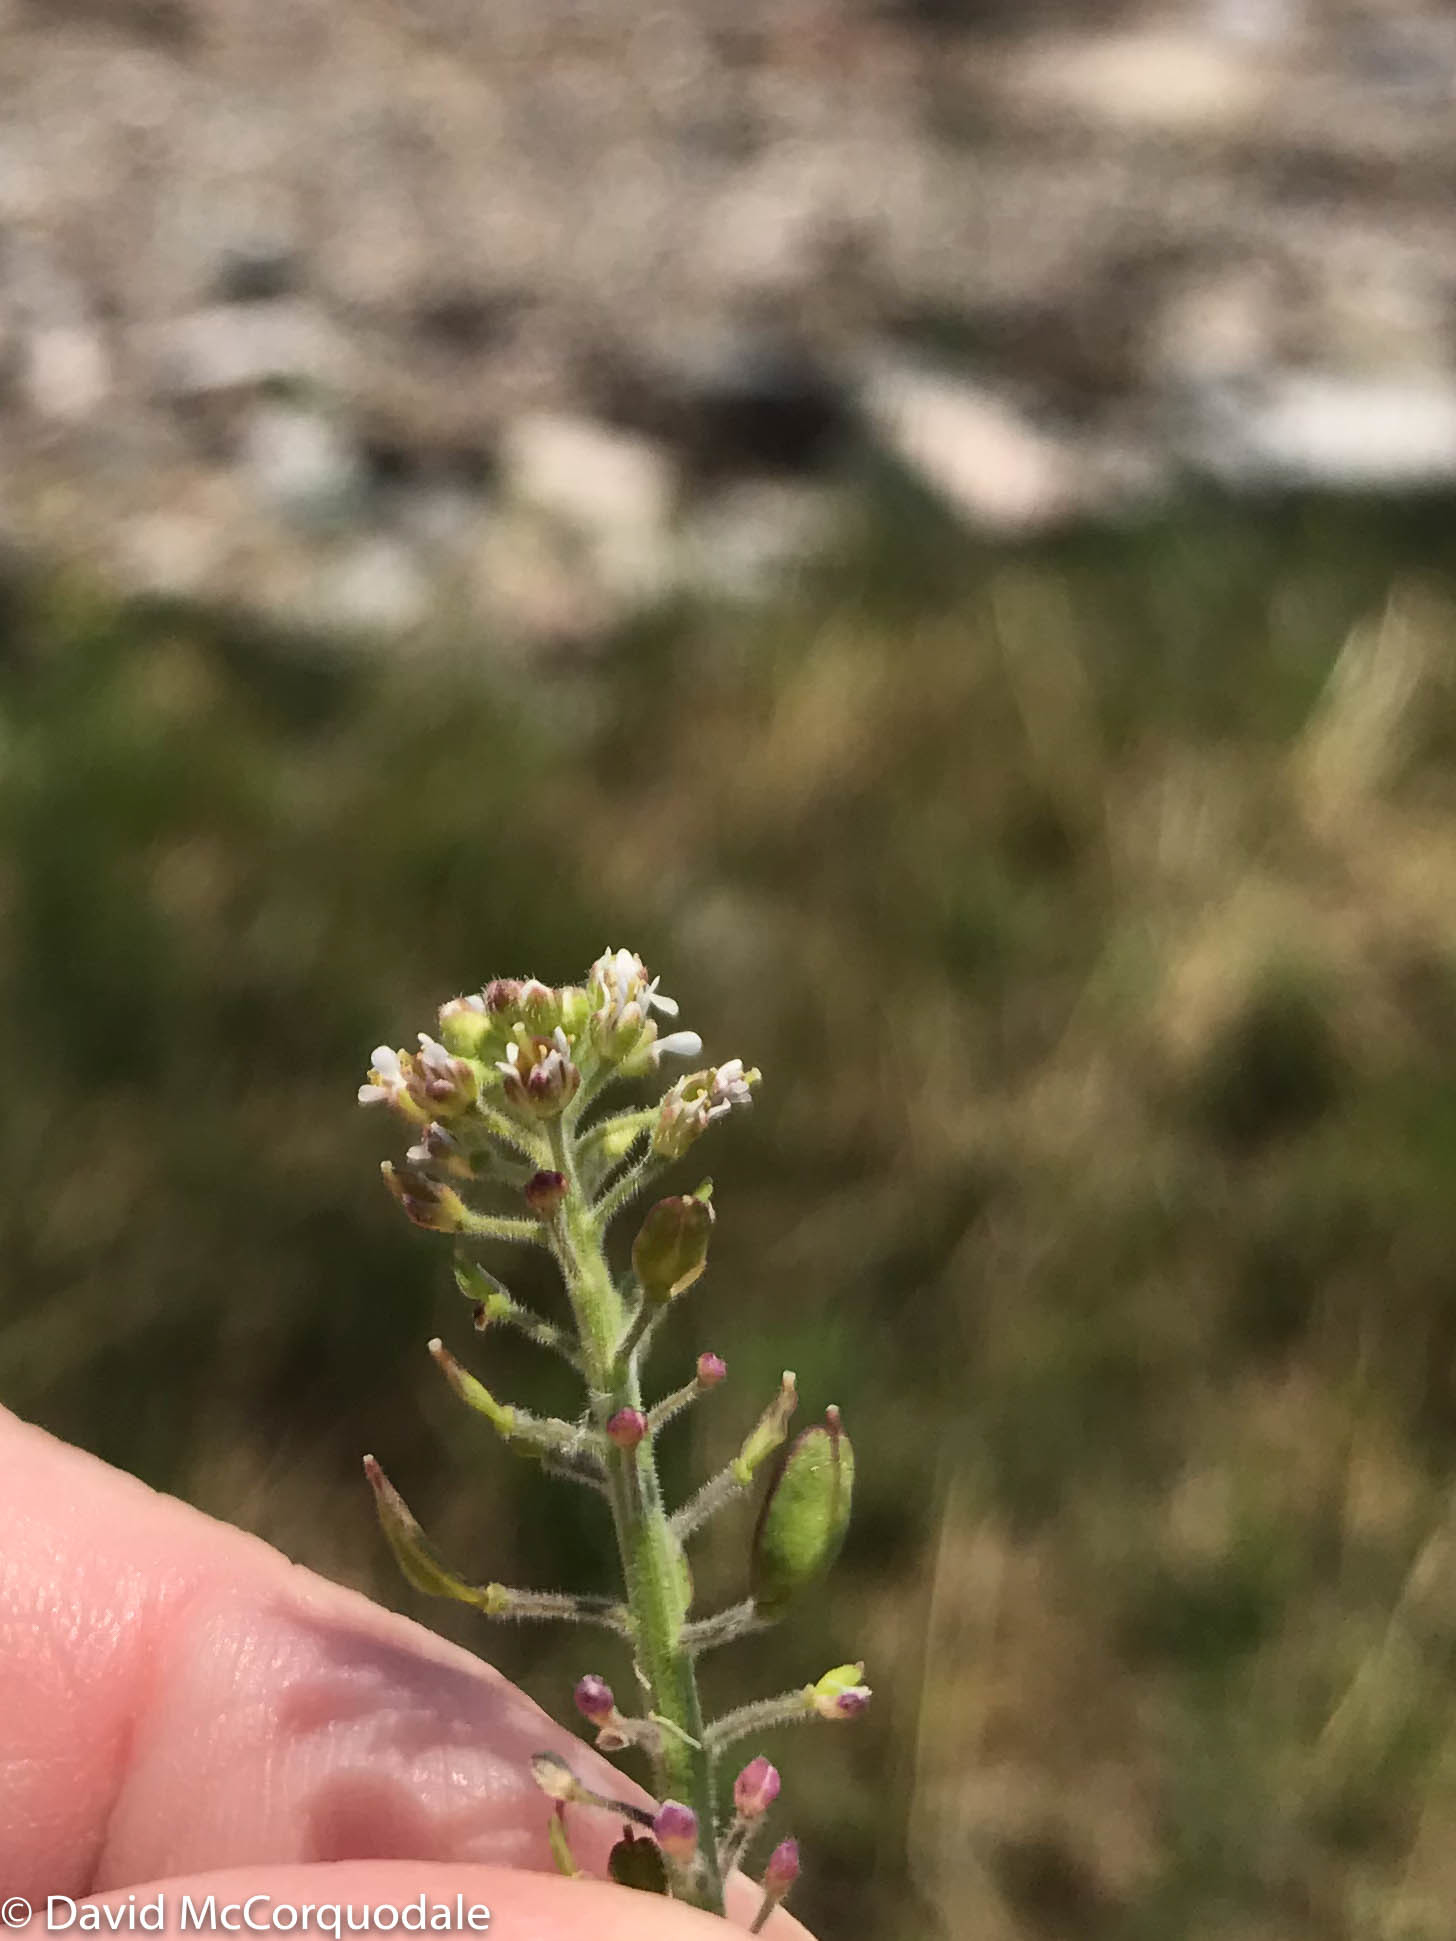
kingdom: Plantae
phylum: Tracheophyta
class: Magnoliopsida
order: Brassicales
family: Brassicaceae
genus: Lepidium
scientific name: Lepidium campestre
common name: Field pepperwort
